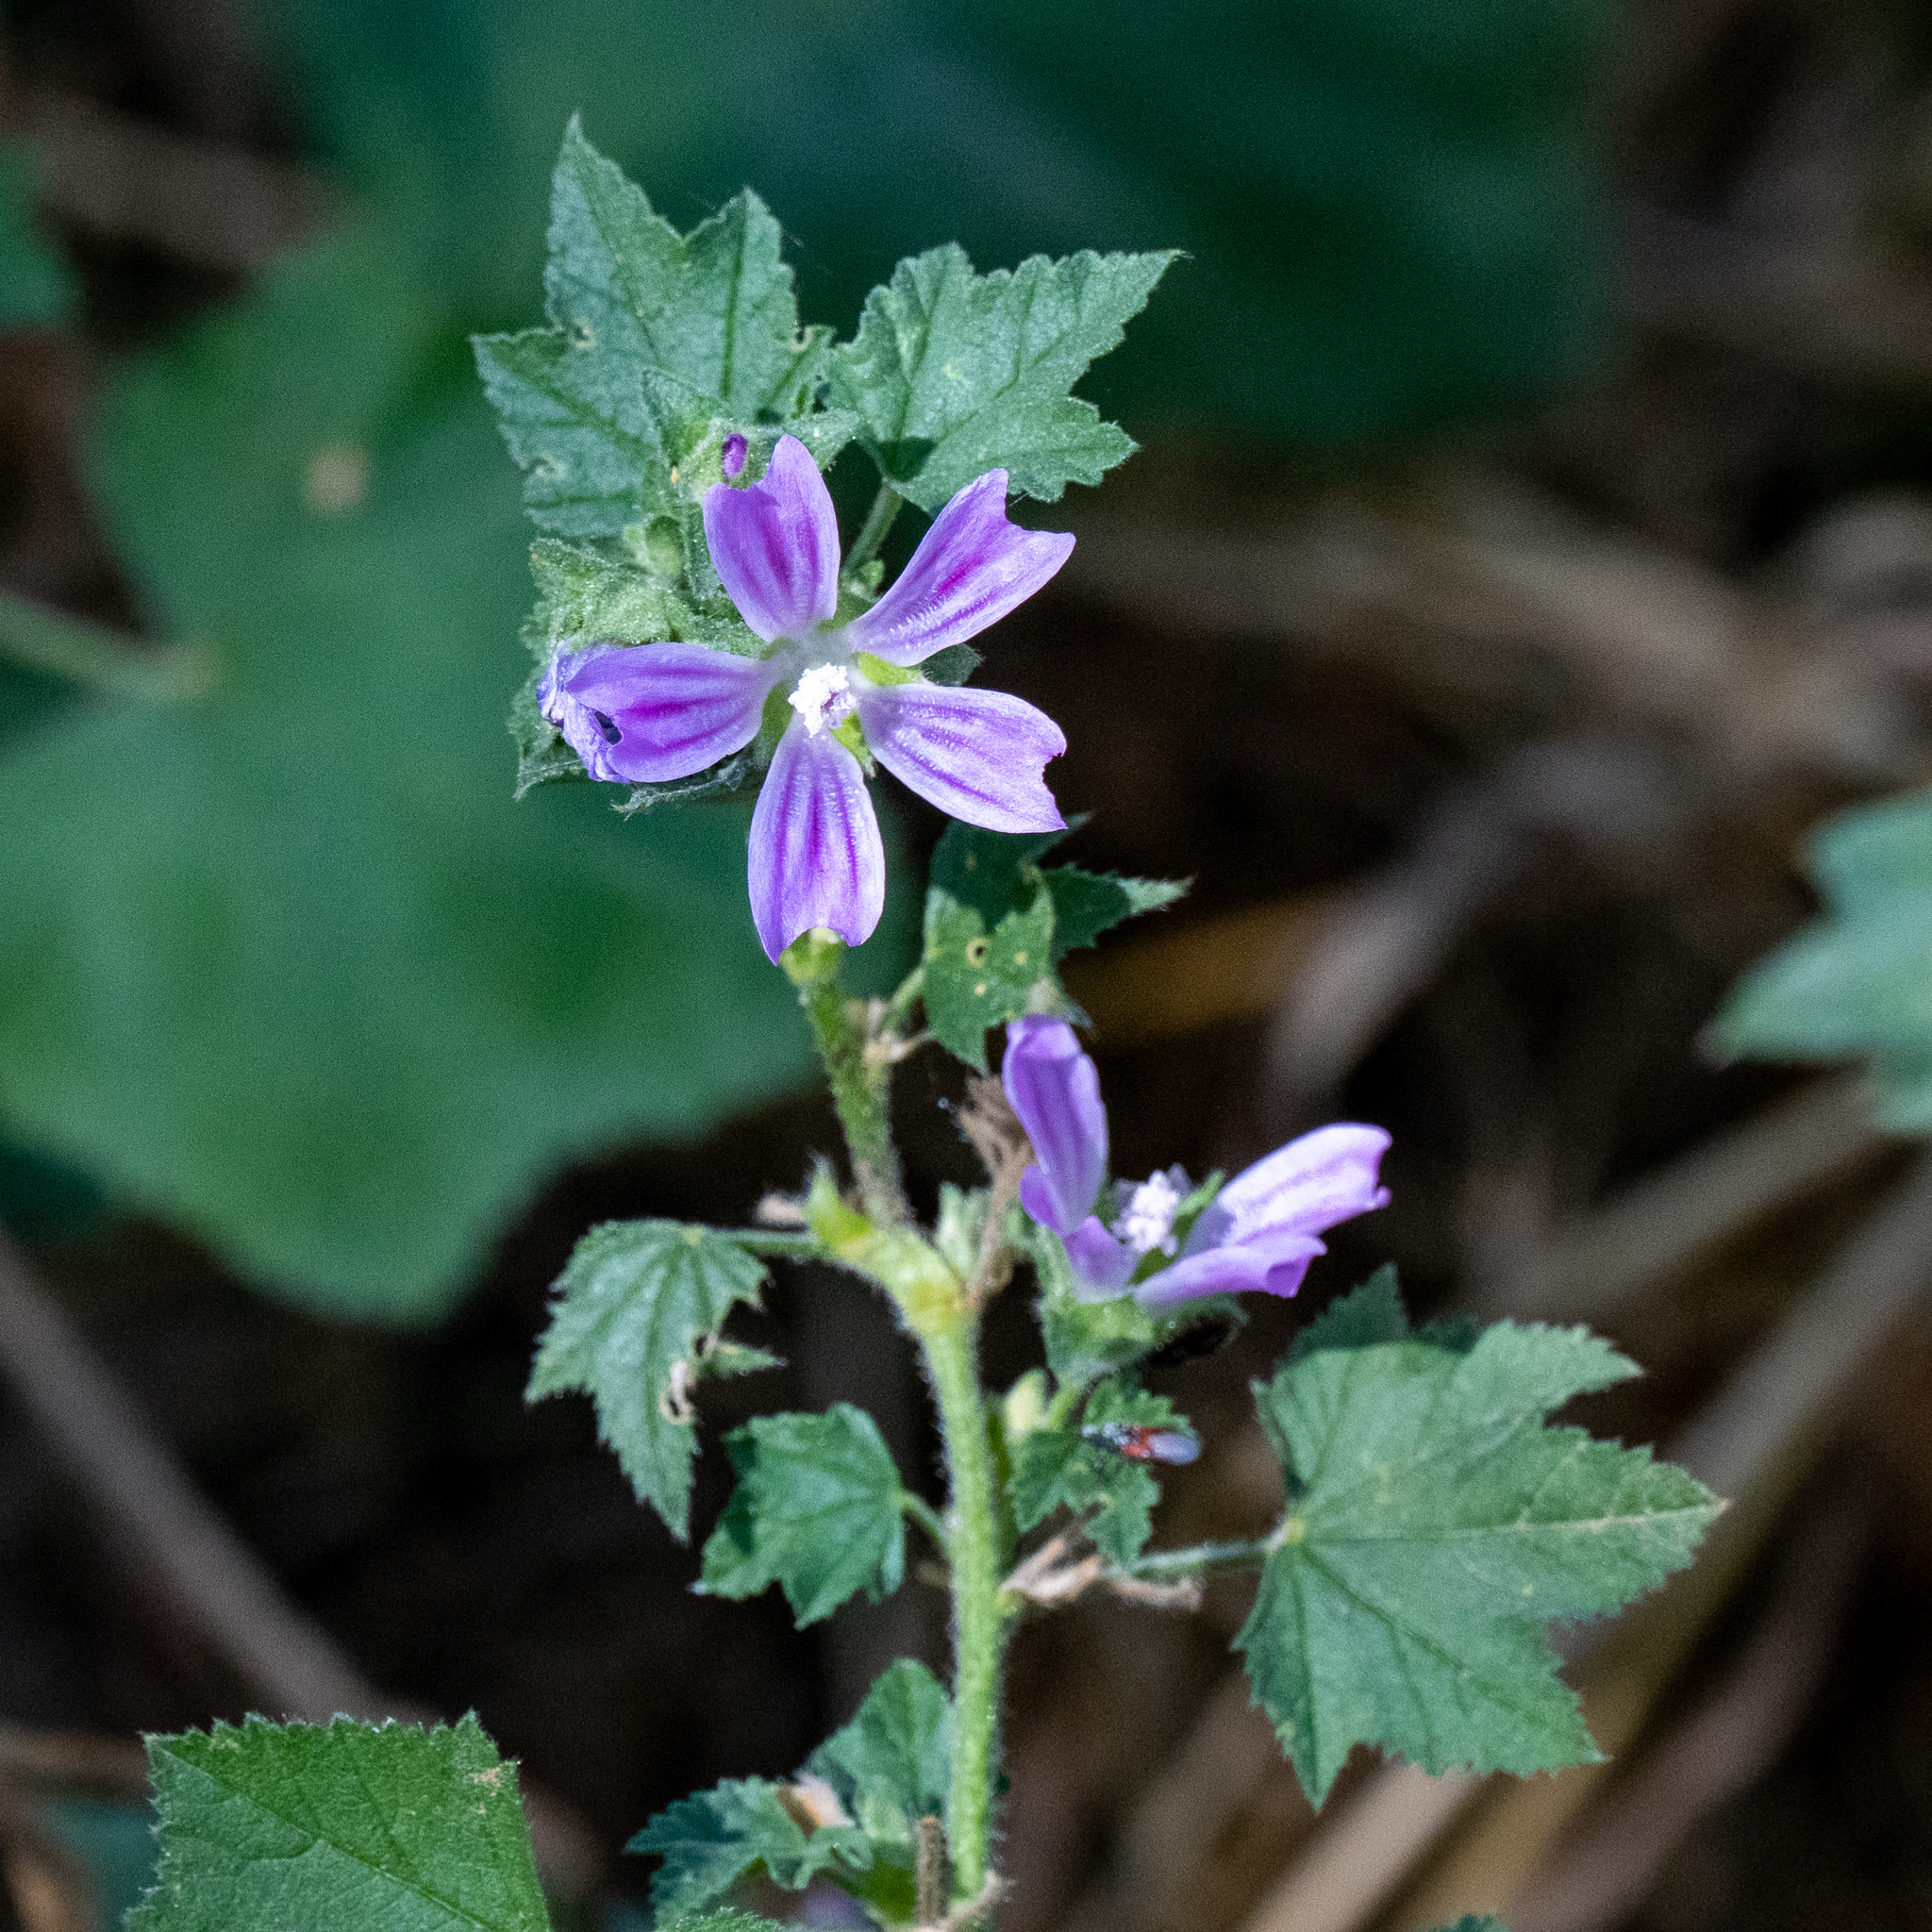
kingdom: Plantae
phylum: Tracheophyta
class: Magnoliopsida
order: Malvales
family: Malvaceae
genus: Malva
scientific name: Malva multiflora
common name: Cheeseweed
